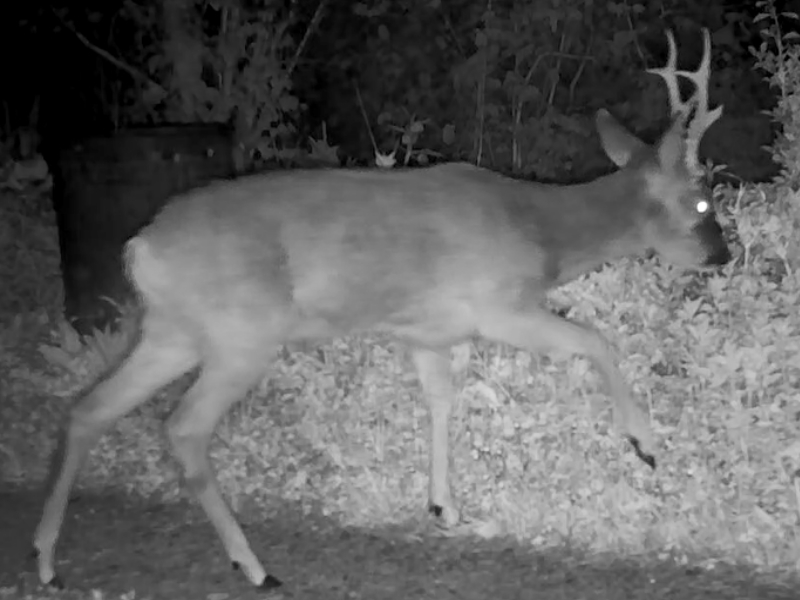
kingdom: Animalia
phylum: Chordata
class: Mammalia
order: Artiodactyla
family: Cervidae
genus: Capreolus
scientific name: Capreolus capreolus
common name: Western roe deer
